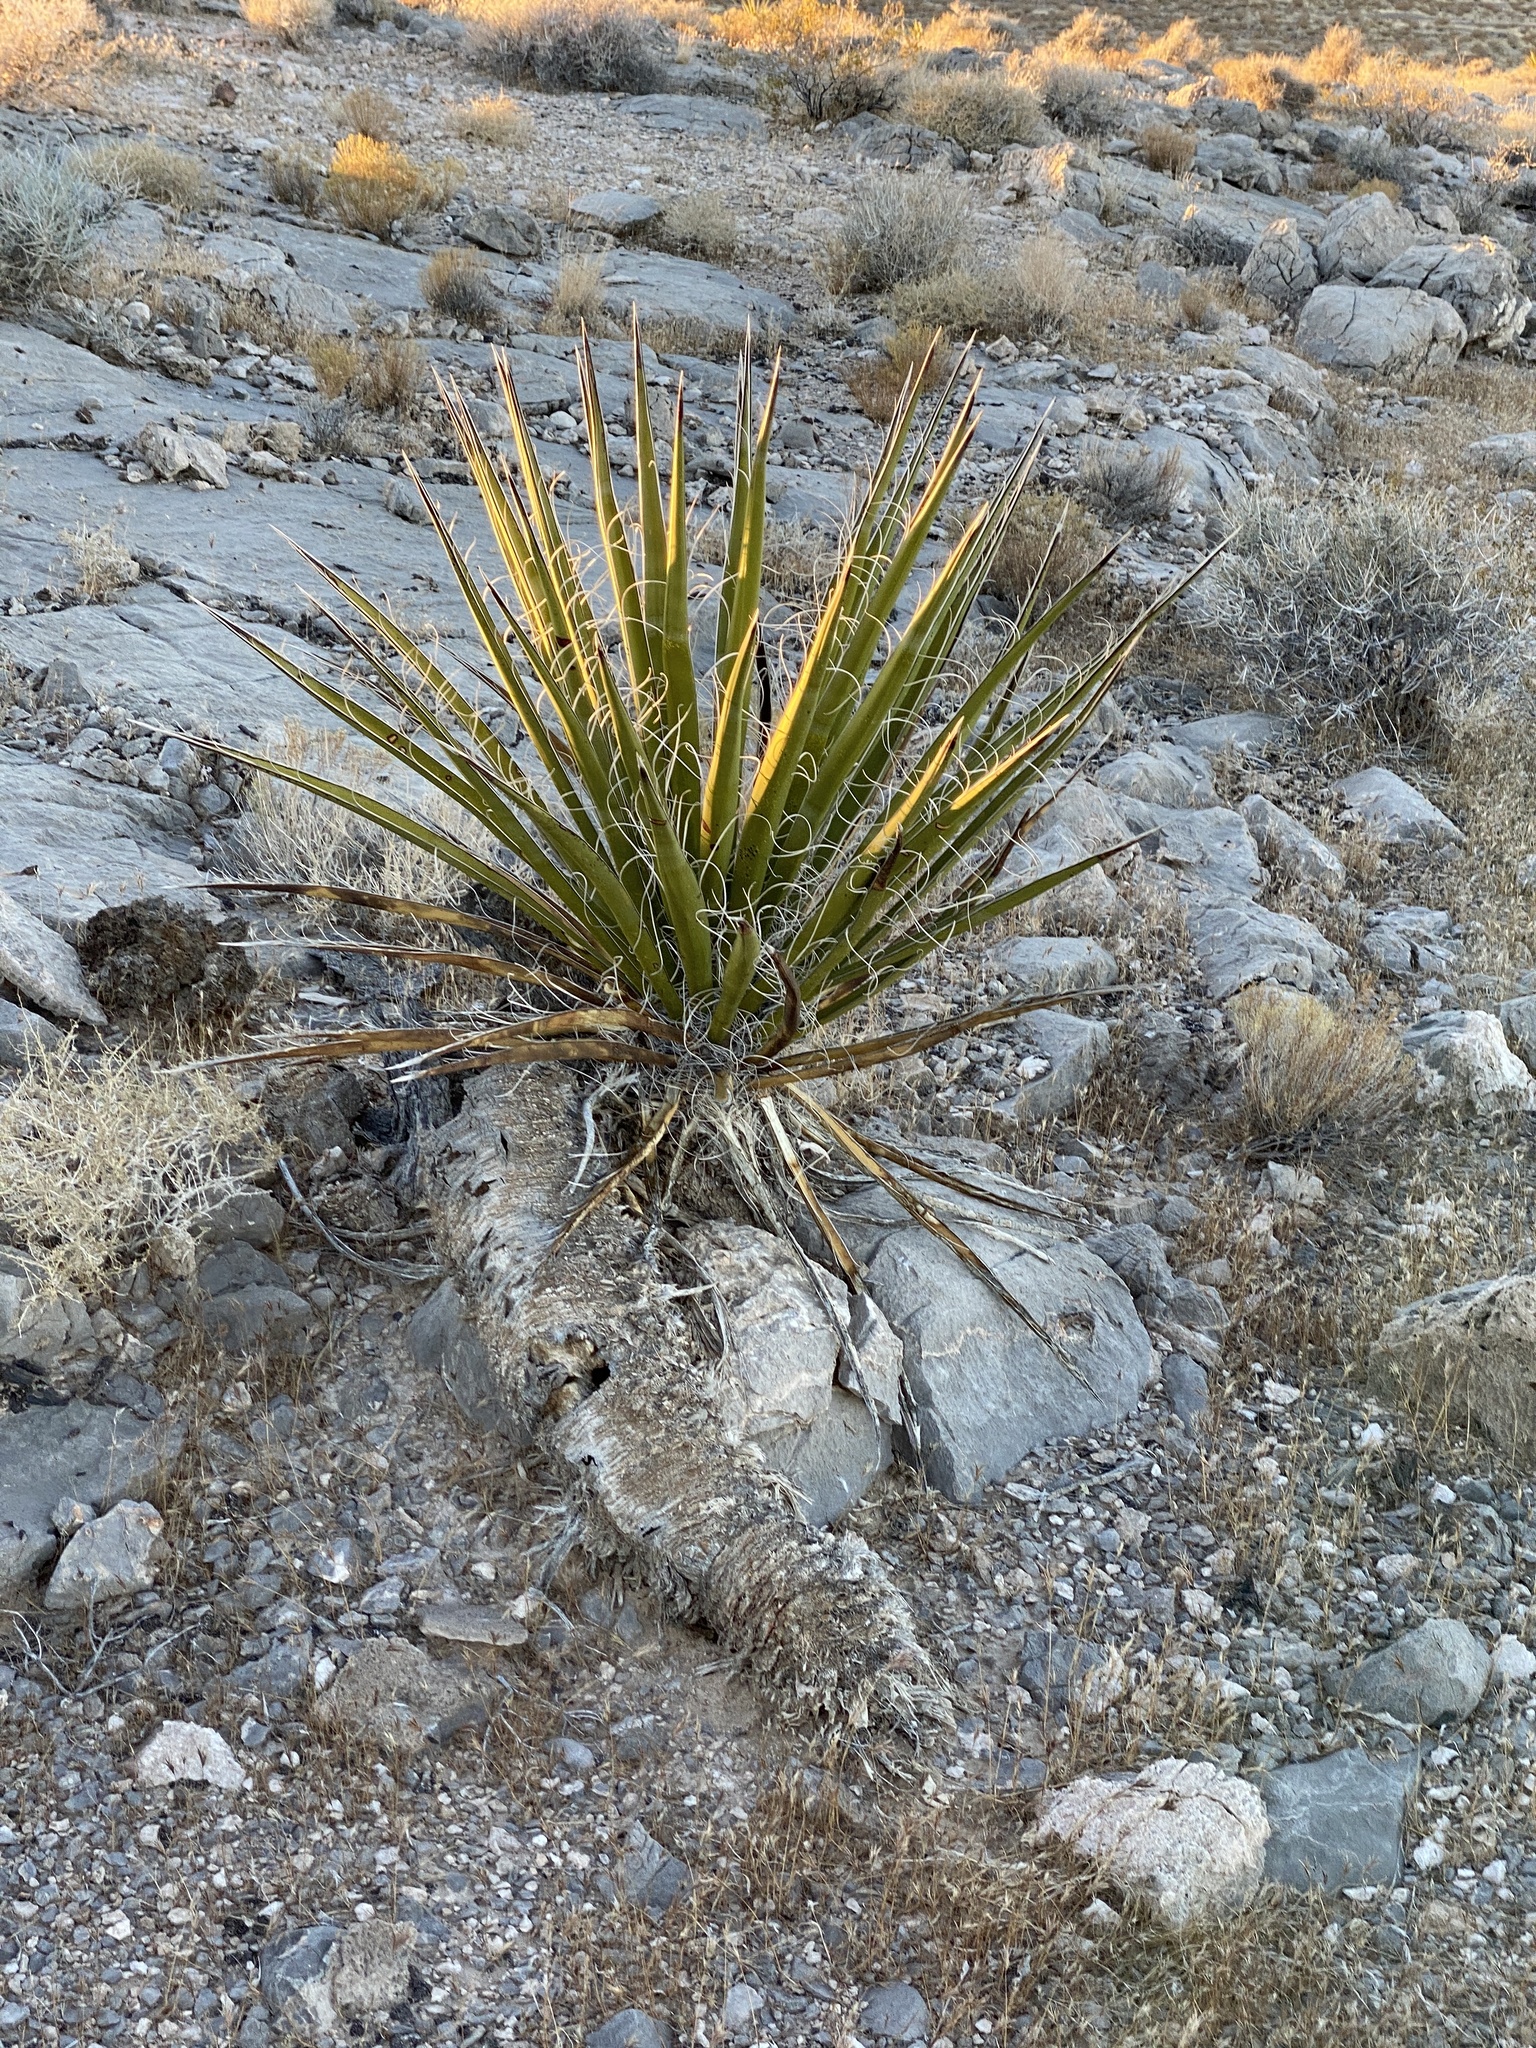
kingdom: Plantae
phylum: Tracheophyta
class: Liliopsida
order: Asparagales
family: Asparagaceae
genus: Yucca
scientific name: Yucca schidigera
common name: Mojave yucca
